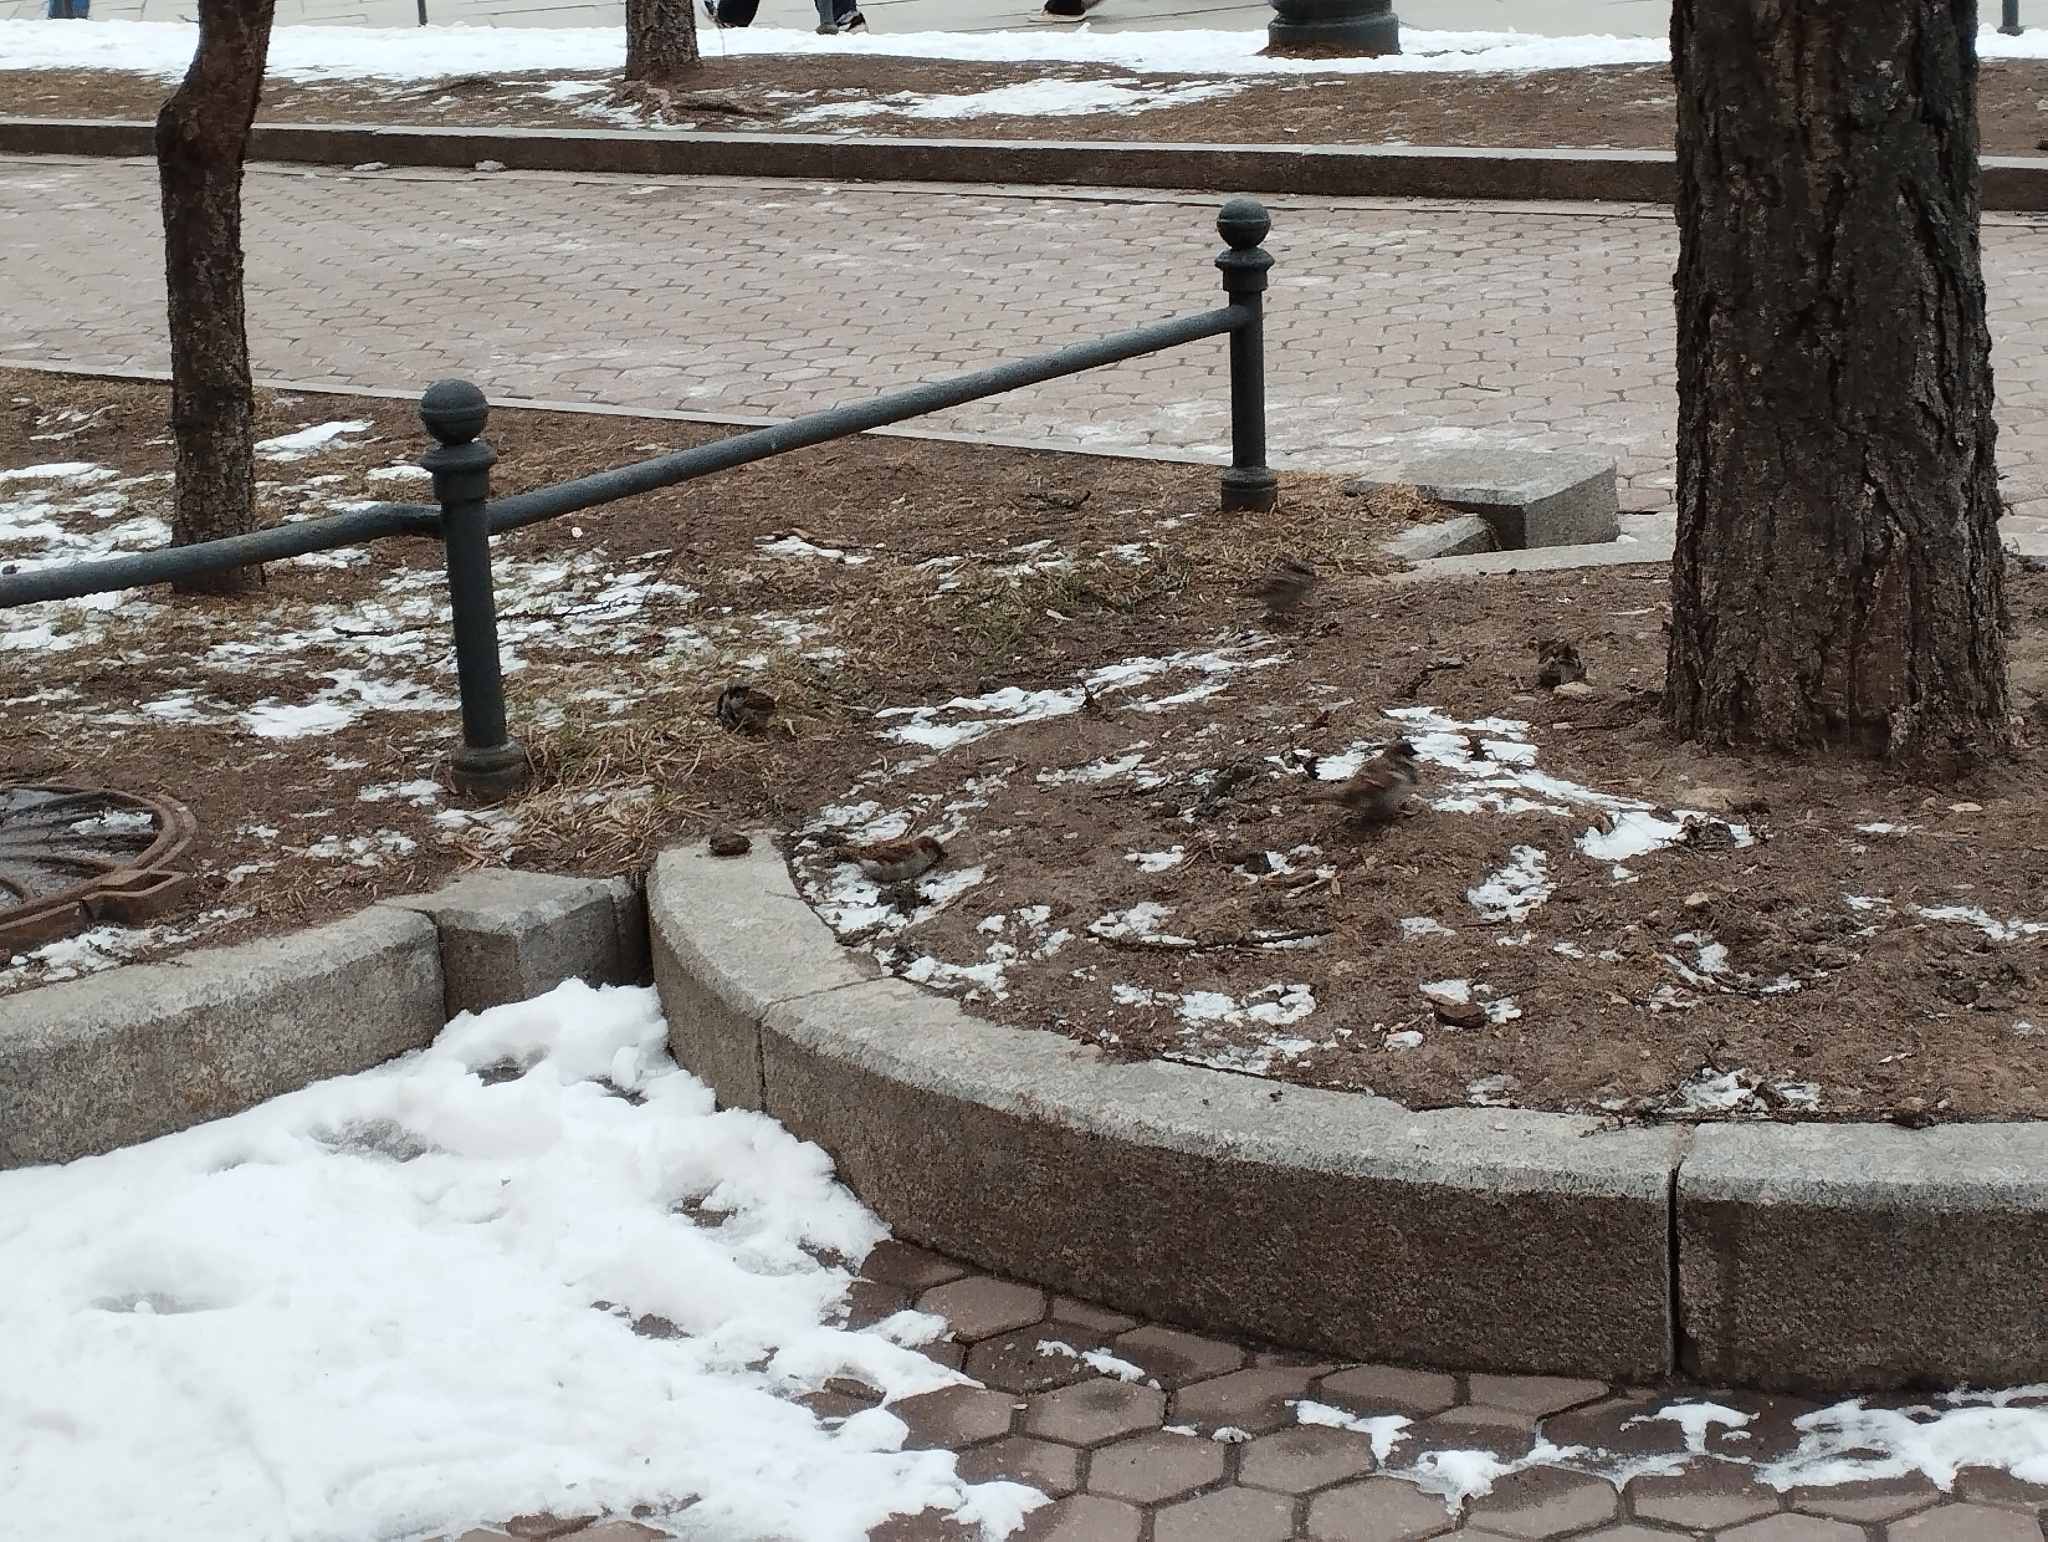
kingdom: Animalia
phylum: Chordata
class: Aves
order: Passeriformes
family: Passeridae
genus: Passer
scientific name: Passer domesticus
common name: House sparrow
